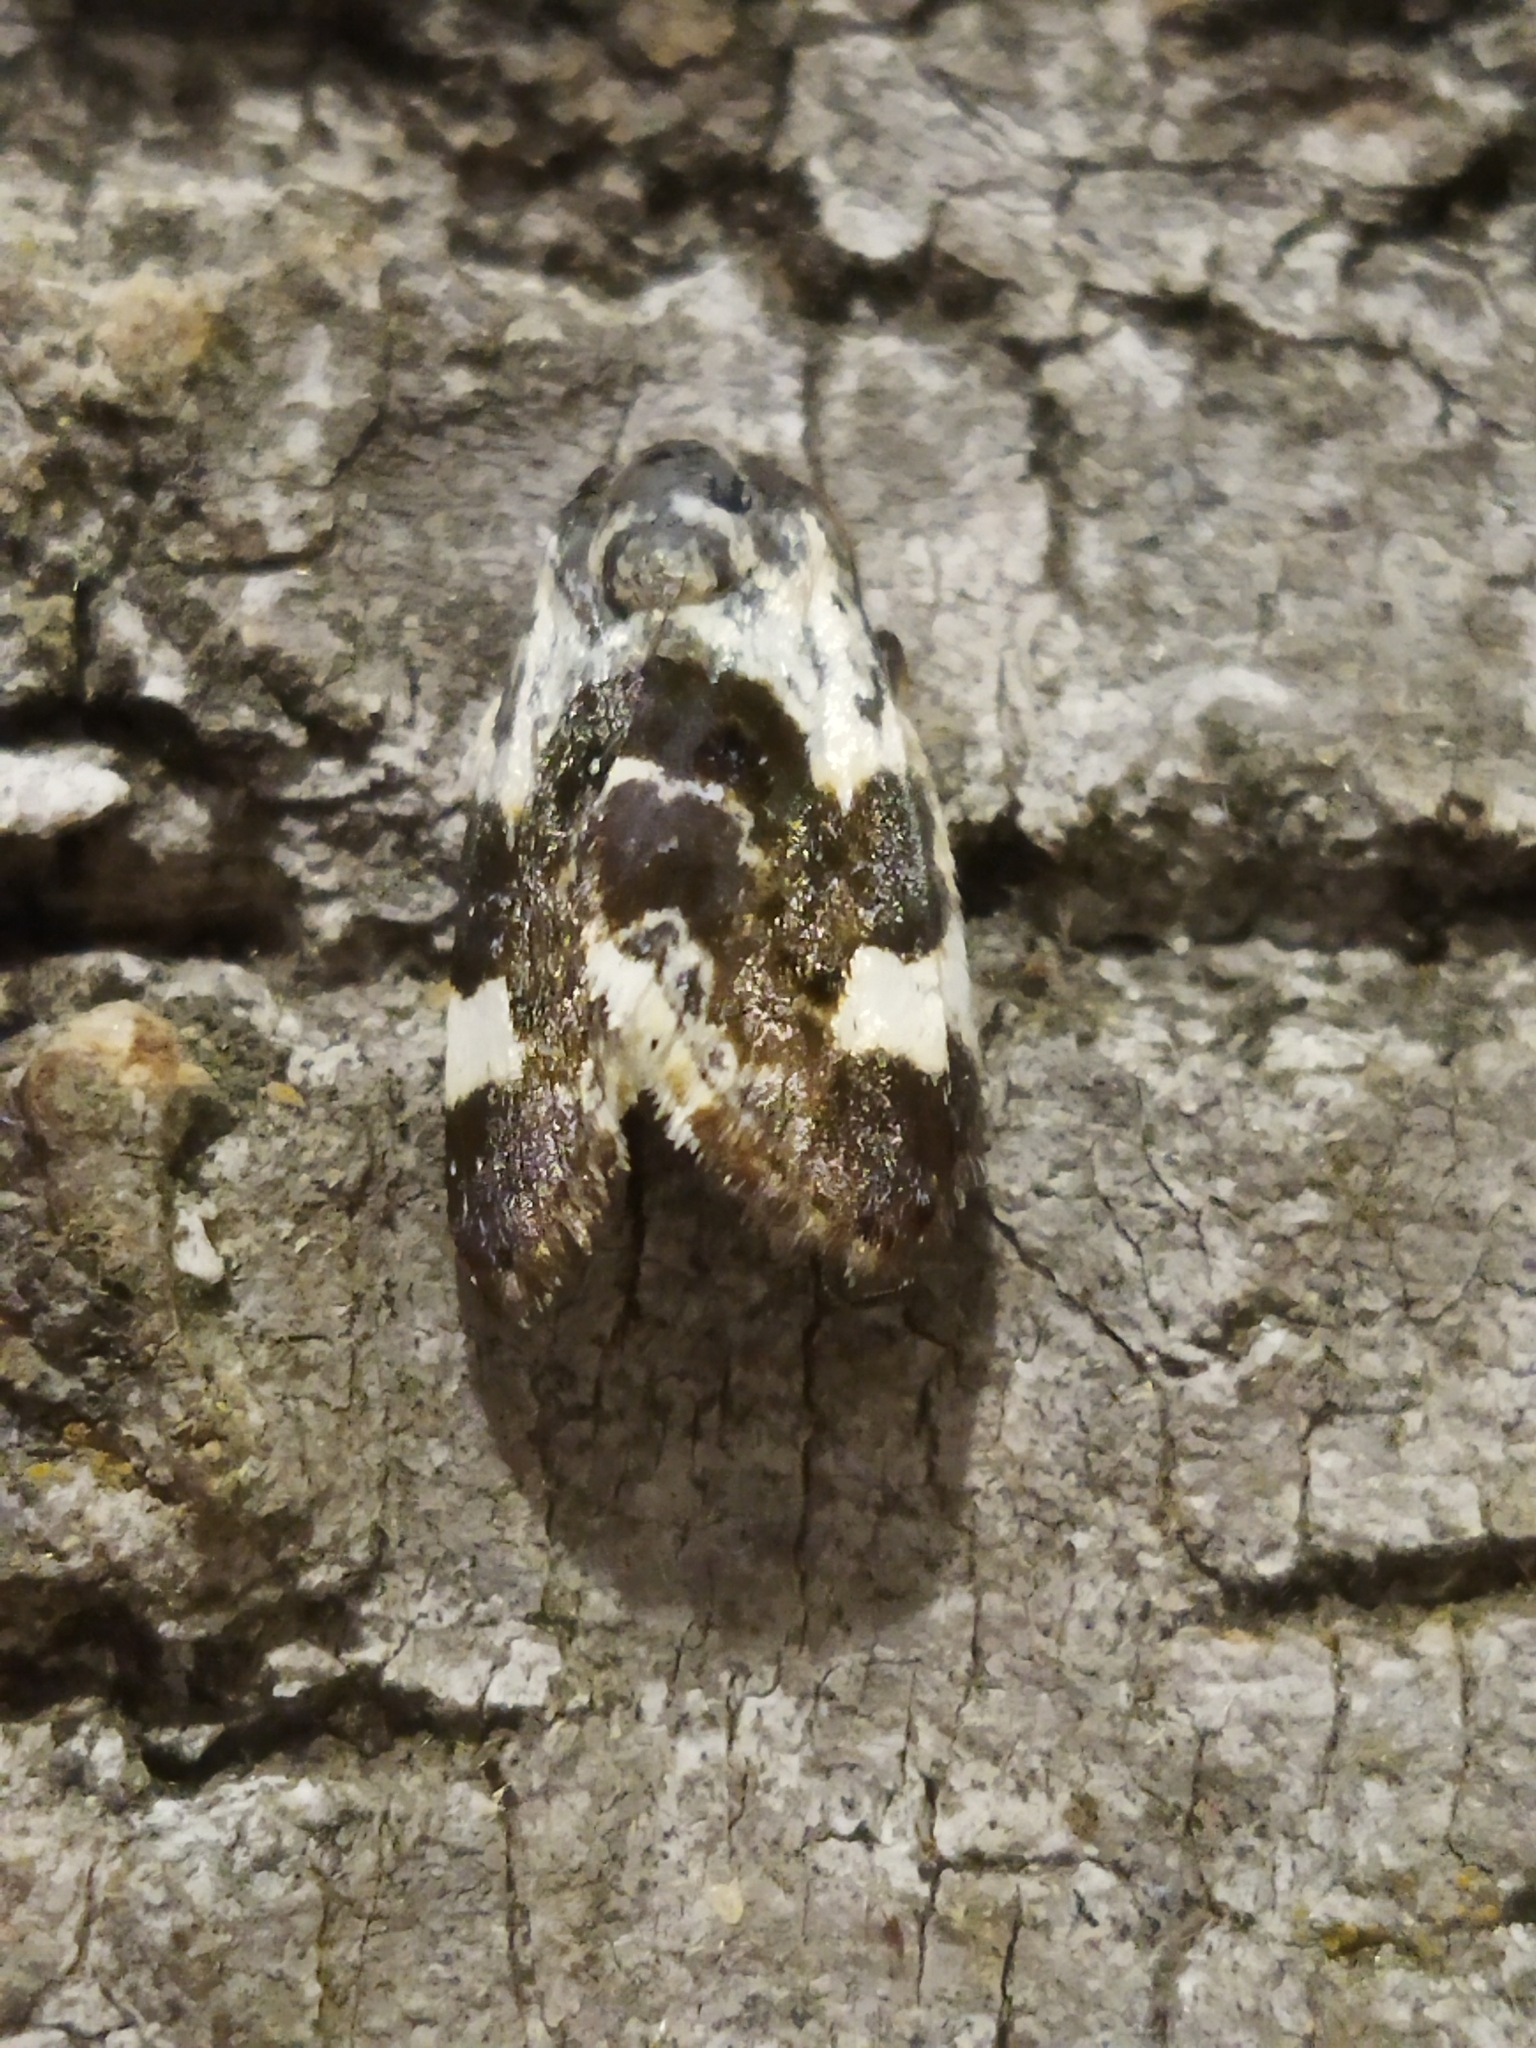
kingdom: Animalia
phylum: Arthropoda
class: Insecta
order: Lepidoptera
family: Noctuidae
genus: Acontia
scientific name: Acontia lucida
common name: Pale shoulder
